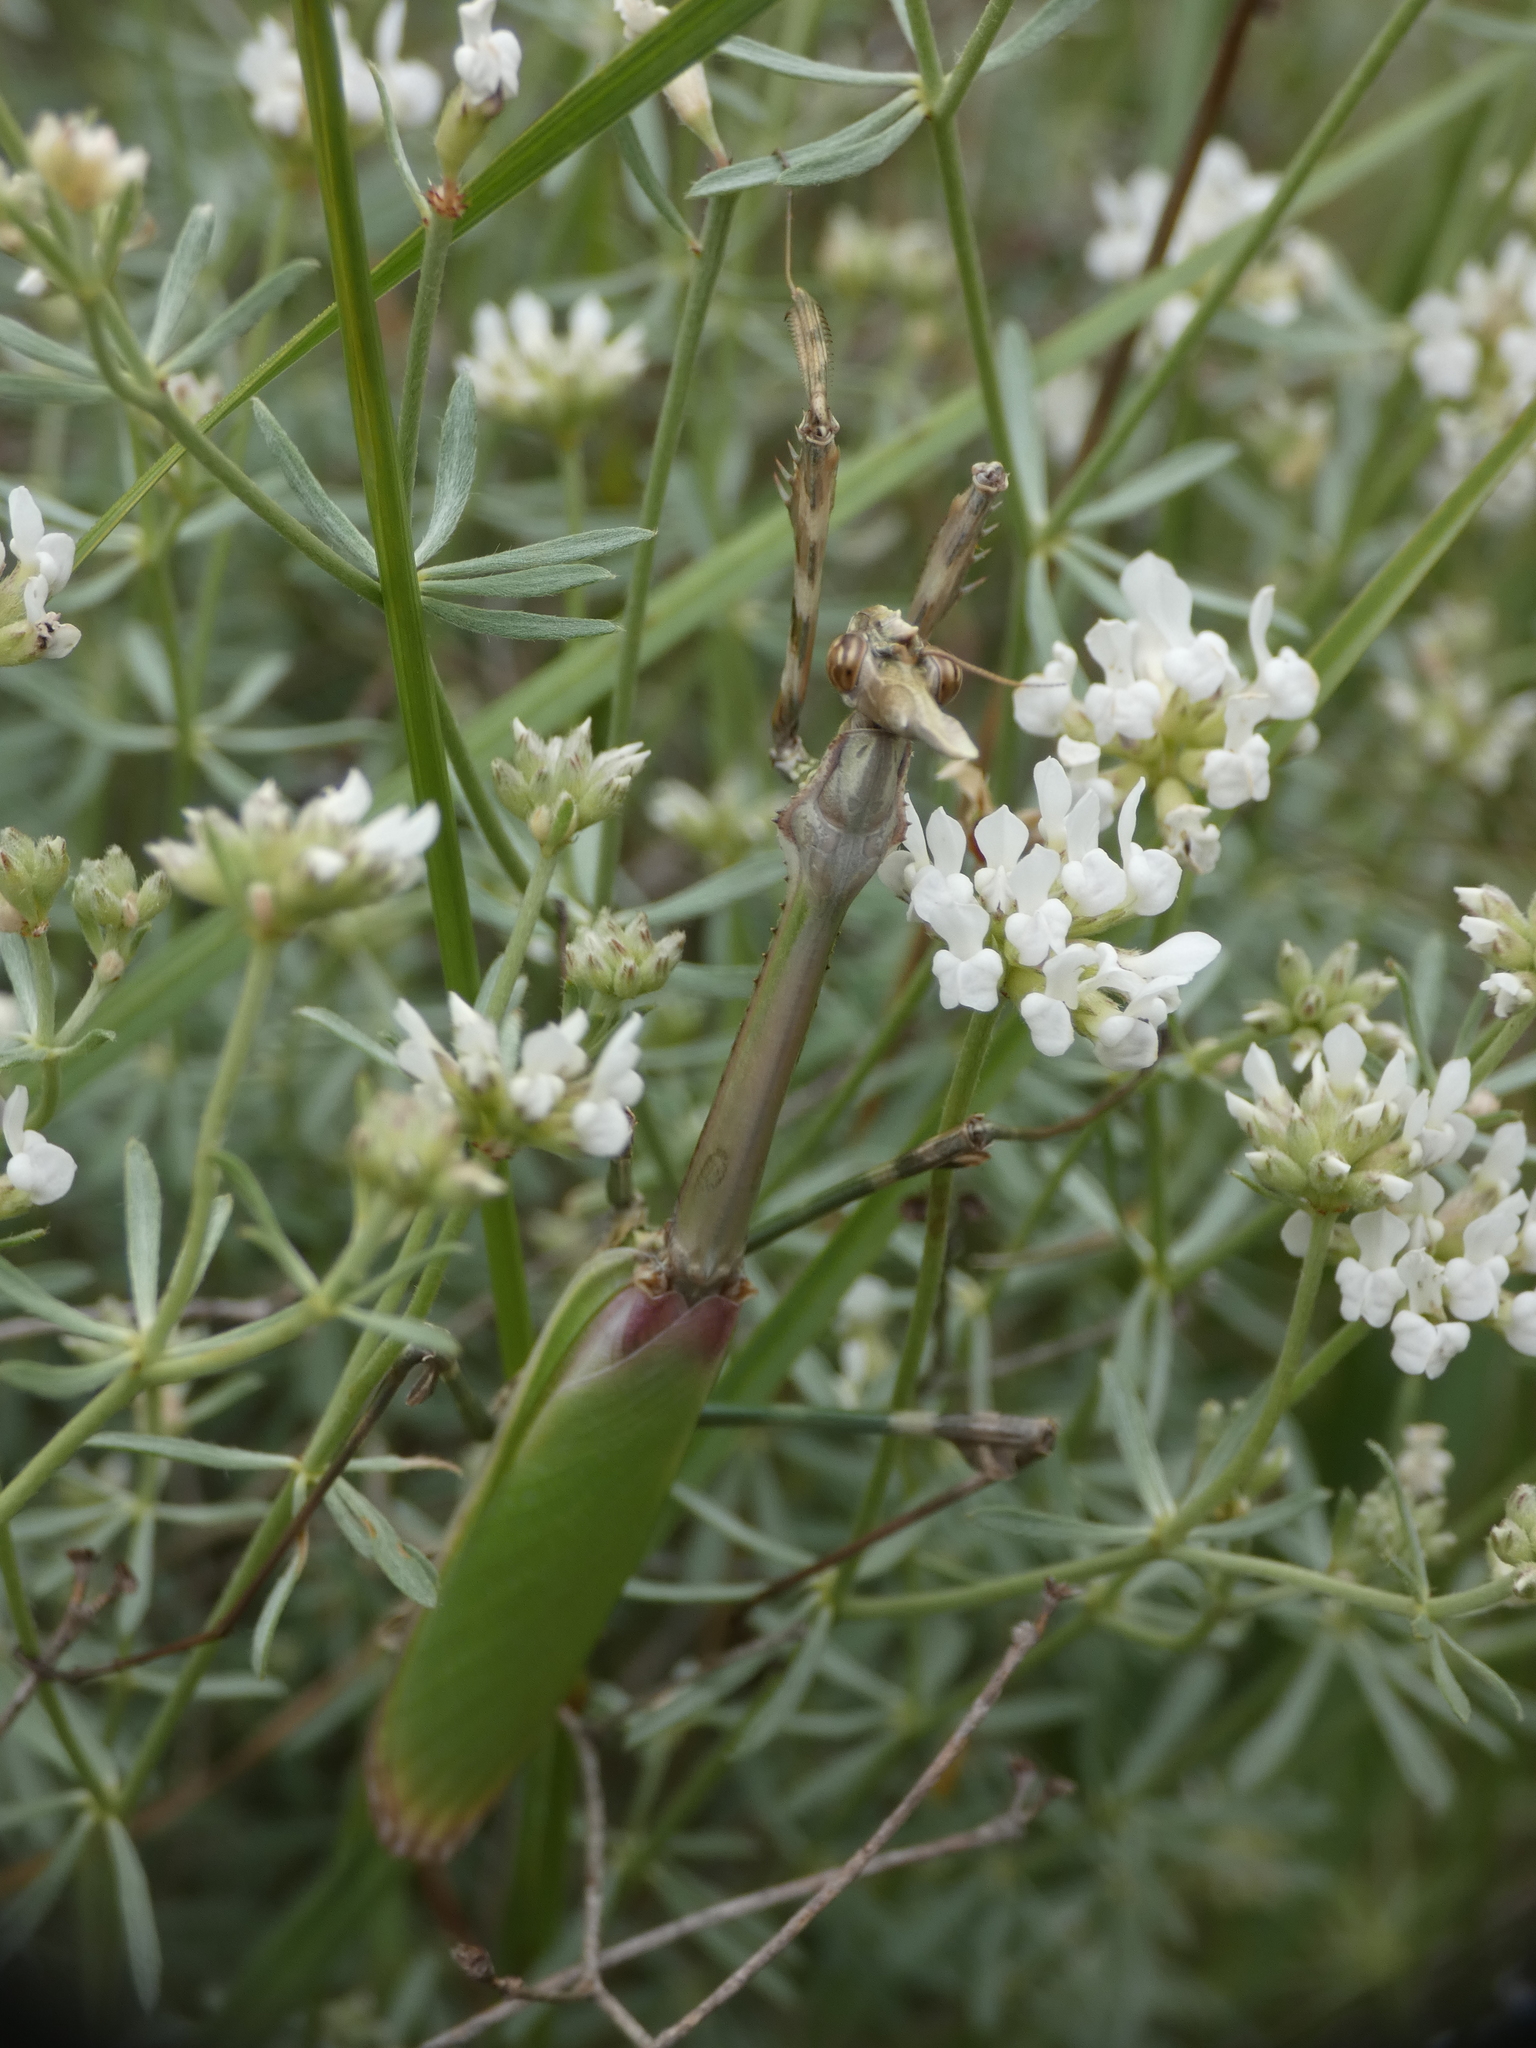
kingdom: Animalia
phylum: Arthropoda
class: Insecta
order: Mantodea
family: Empusidae
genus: Empusa
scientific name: Empusa pennata
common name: Conehead mantis
